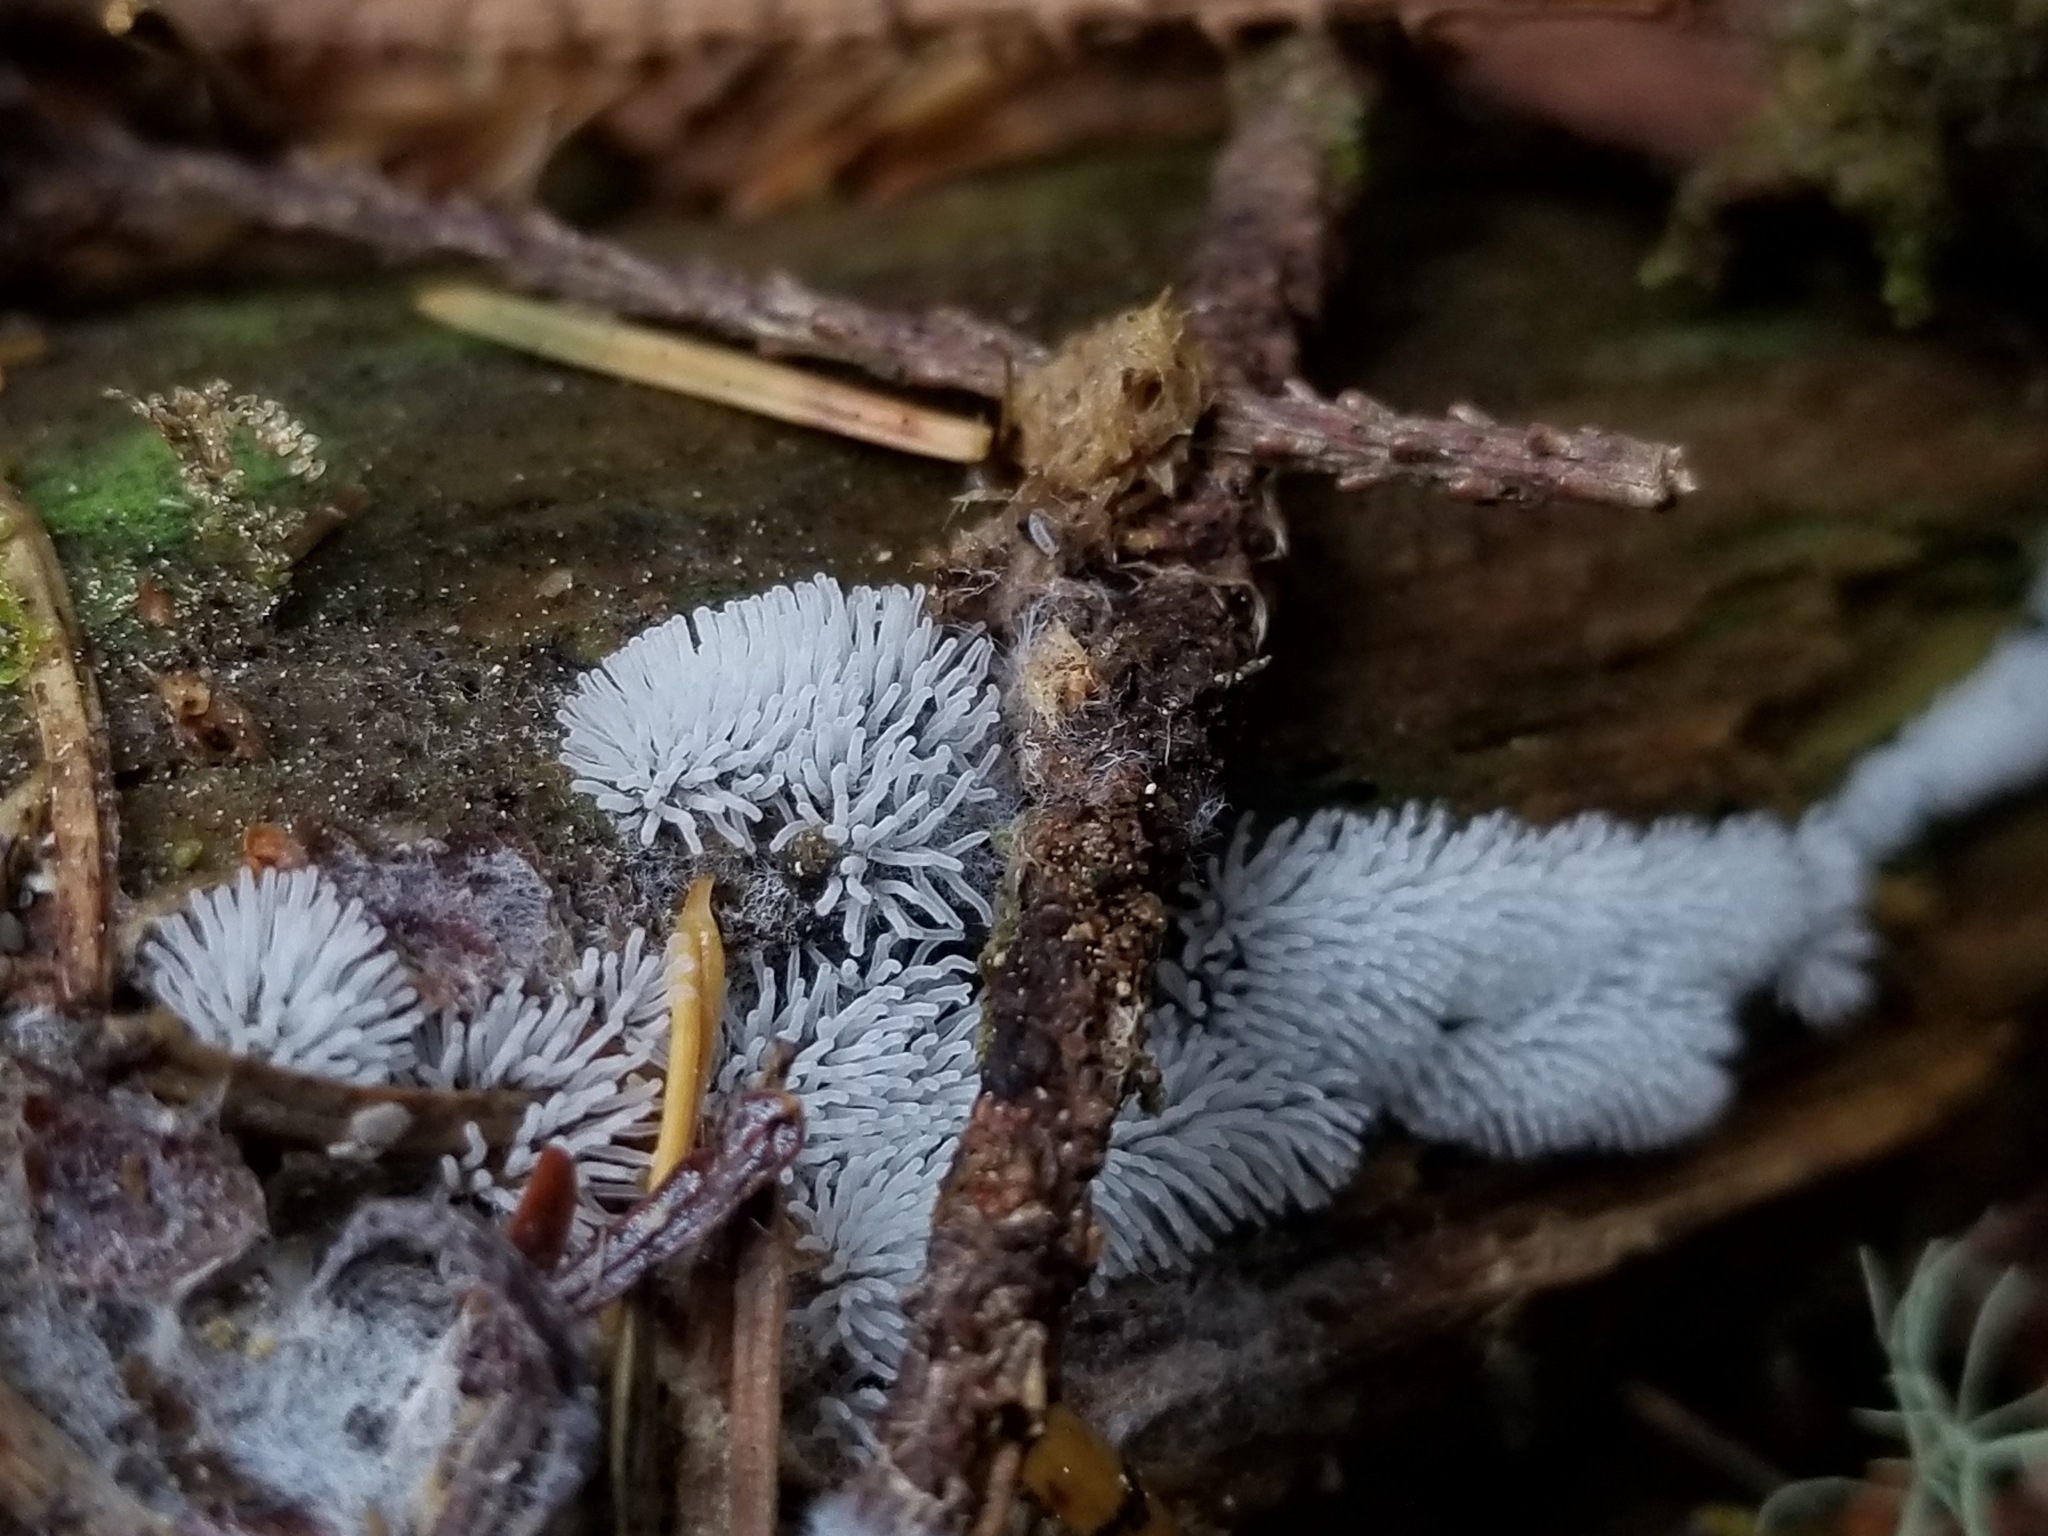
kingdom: Protozoa
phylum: Mycetozoa
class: Protosteliomycetes
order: Ceratiomyxales
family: Ceratiomyxaceae
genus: Ceratiomyxa
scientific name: Ceratiomyxa fruticulosa
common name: Honeycomb coral slime mold
